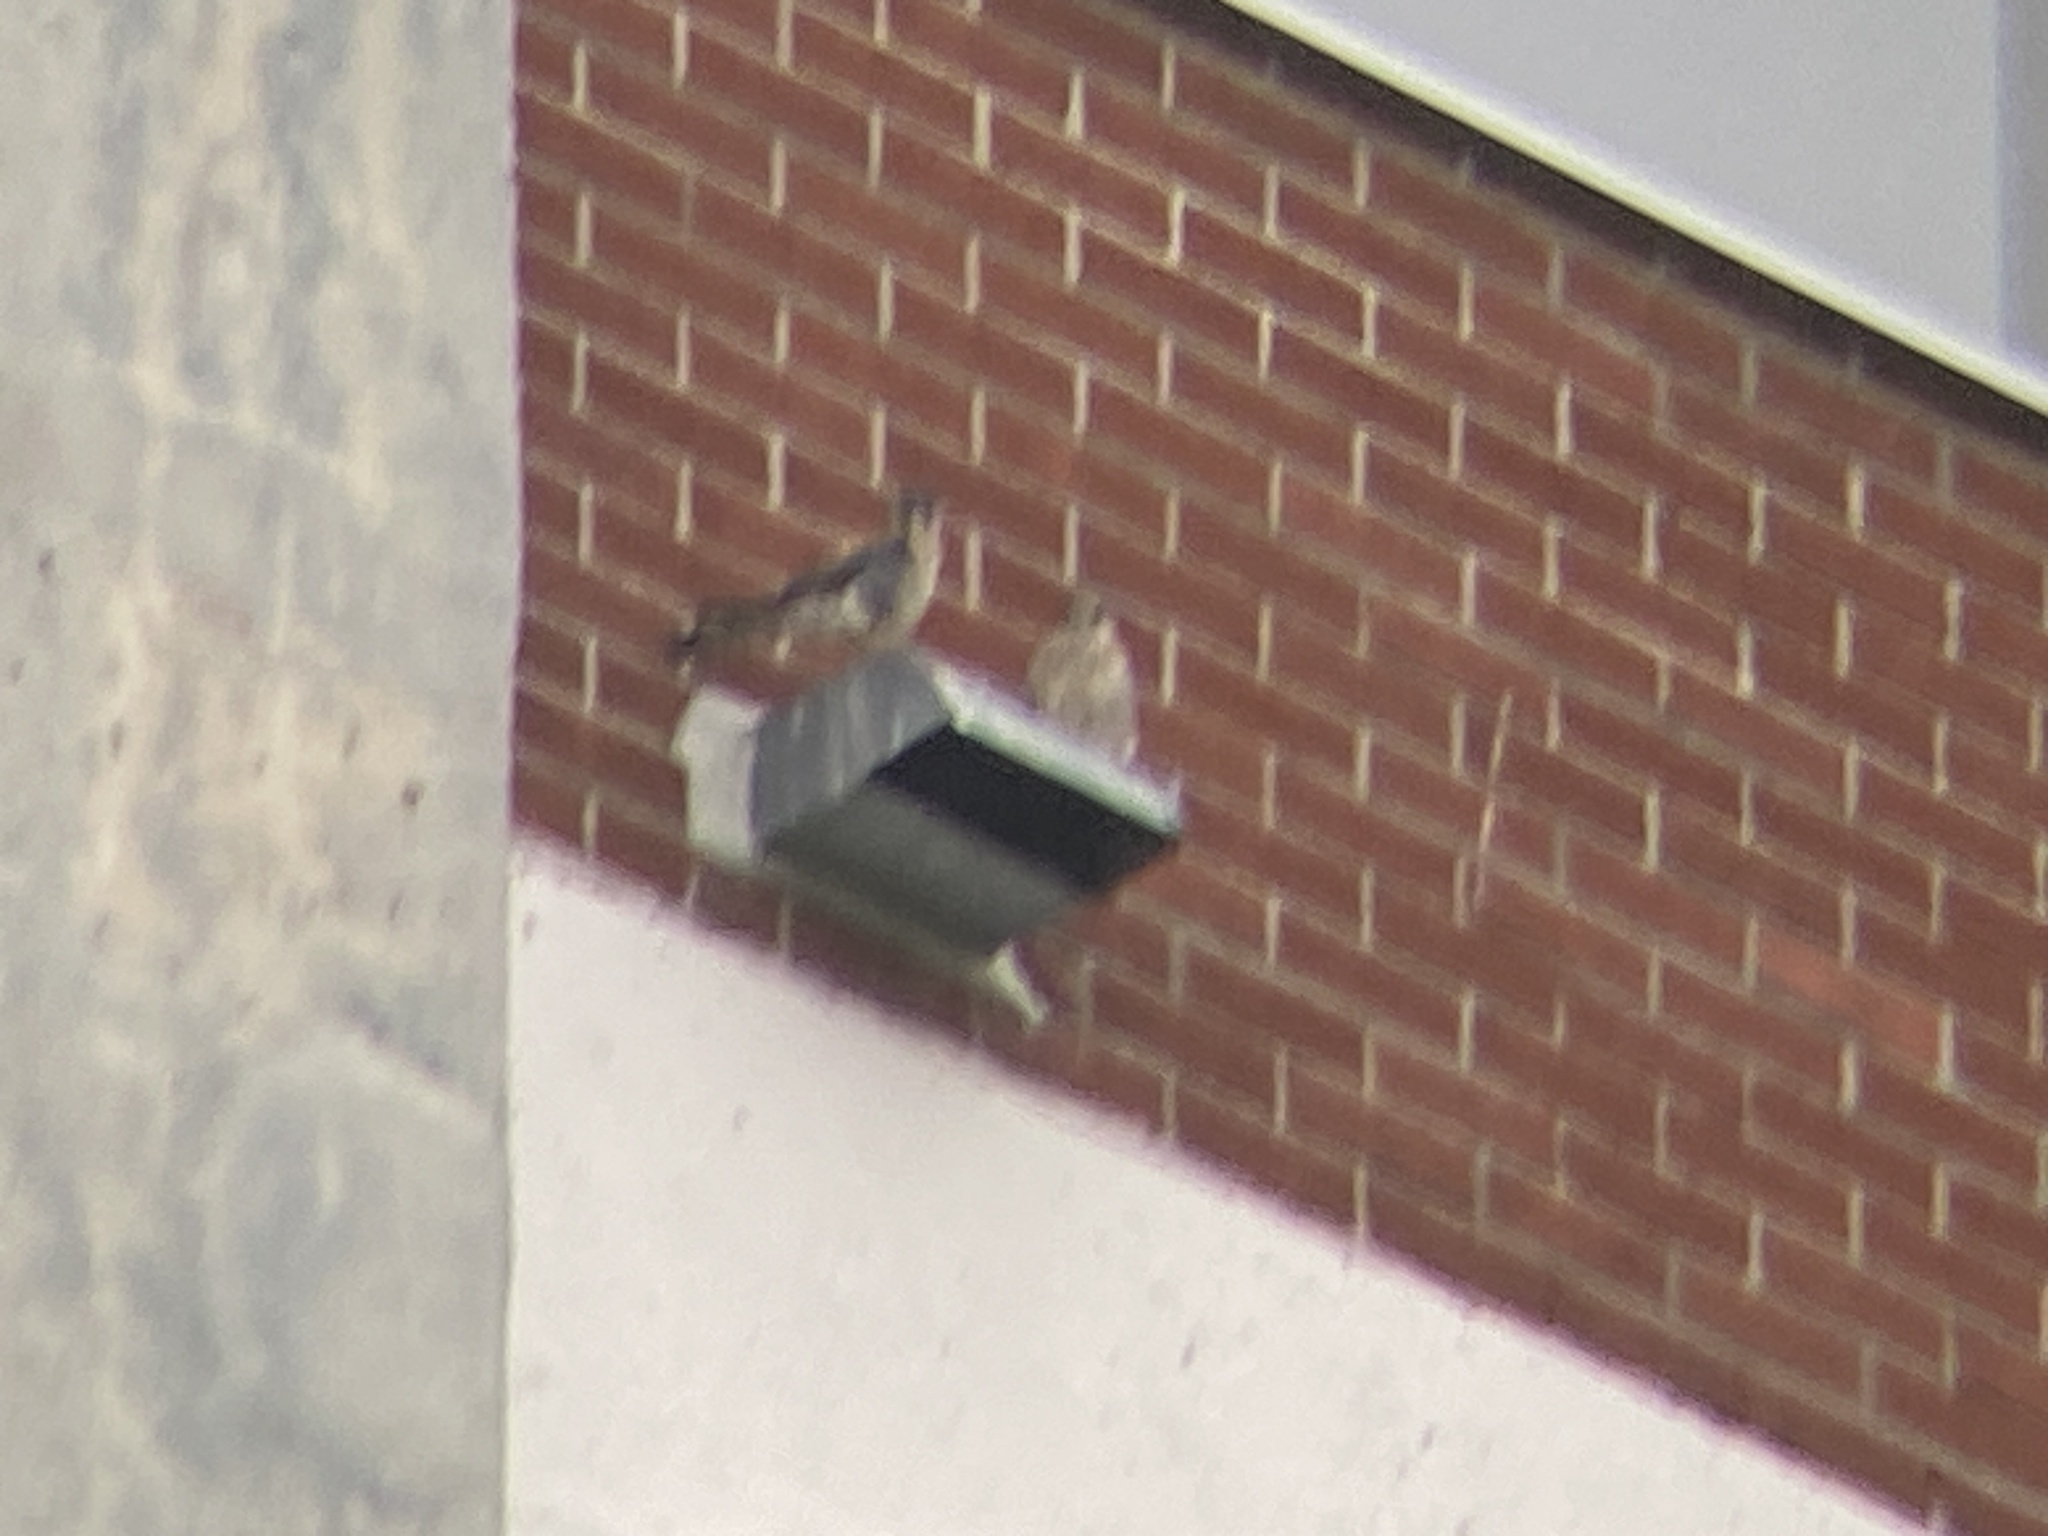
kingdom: Animalia
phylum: Chordata
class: Aves
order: Falconiformes
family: Falconidae
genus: Falco
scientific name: Falco sparverius
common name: American kestrel
